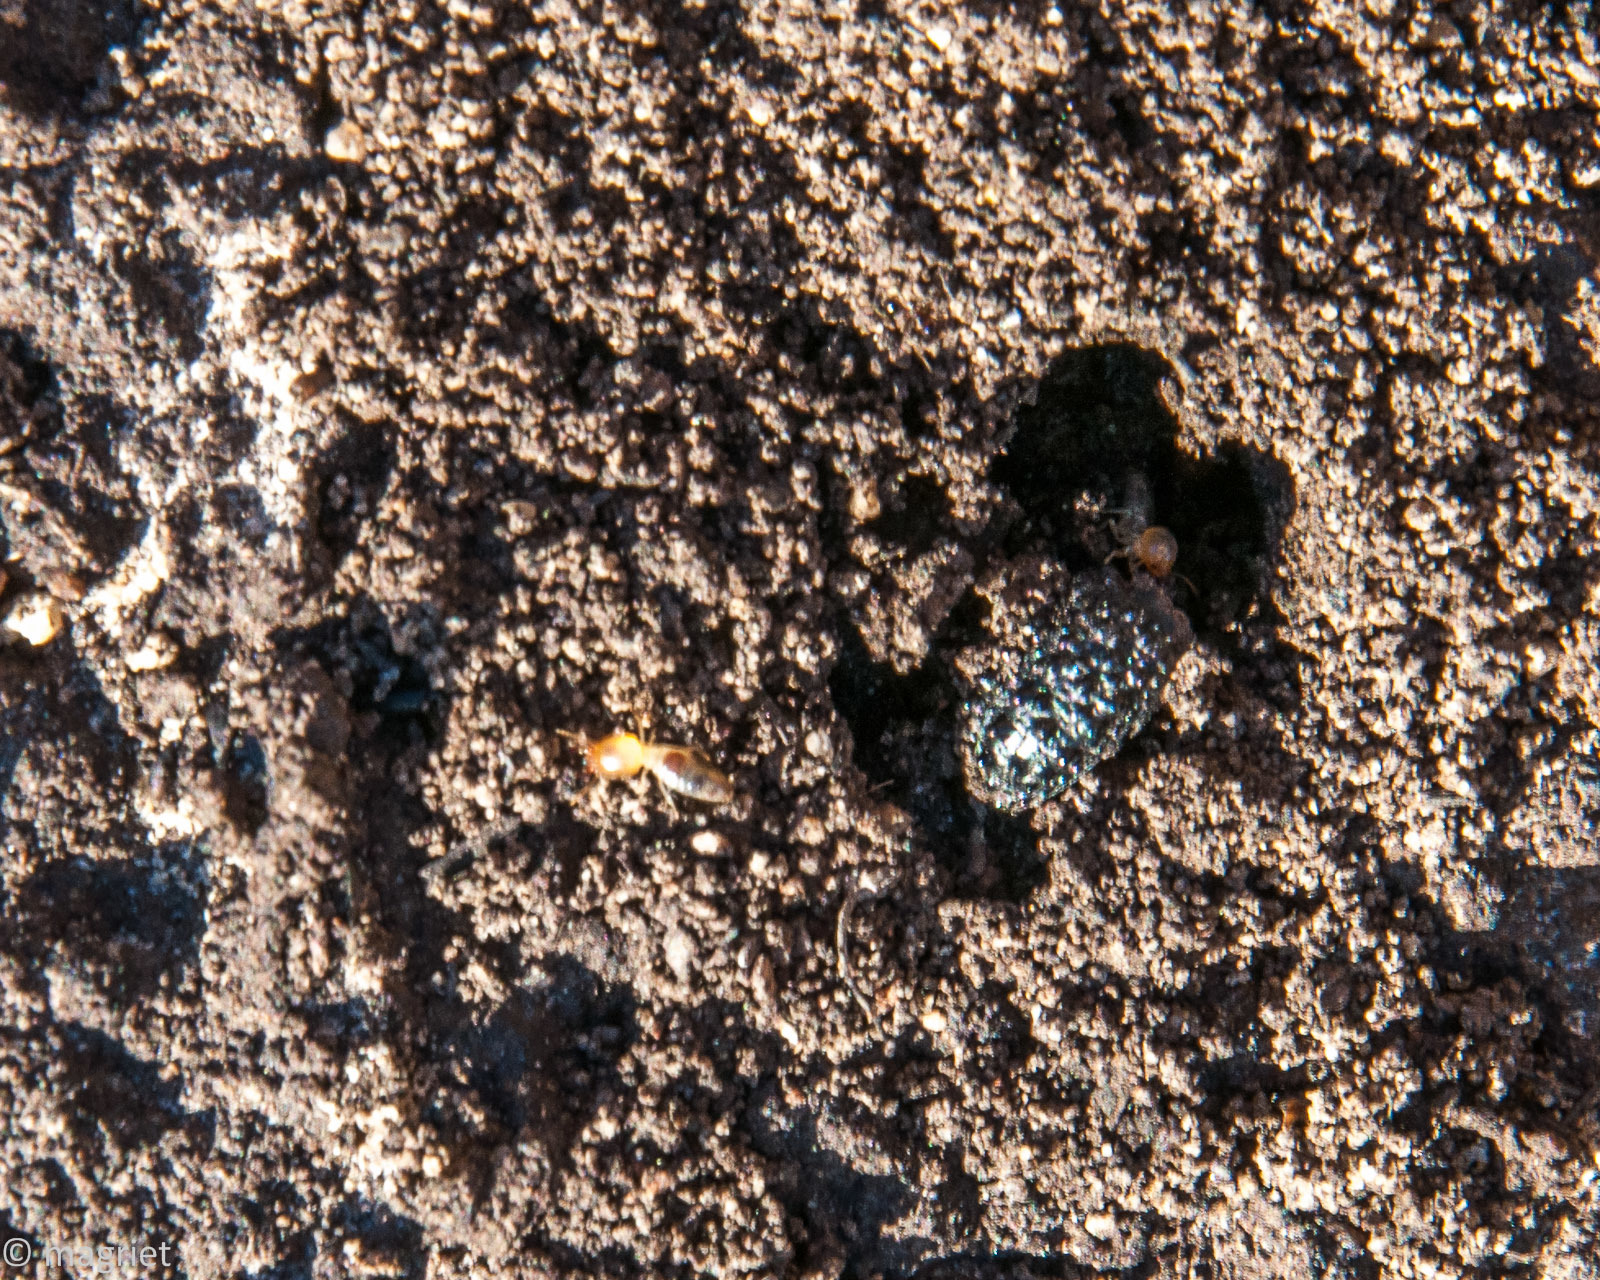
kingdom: Animalia
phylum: Arthropoda
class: Insecta
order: Blattodea
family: Termitidae
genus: Amitermes
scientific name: Amitermes hastatus
